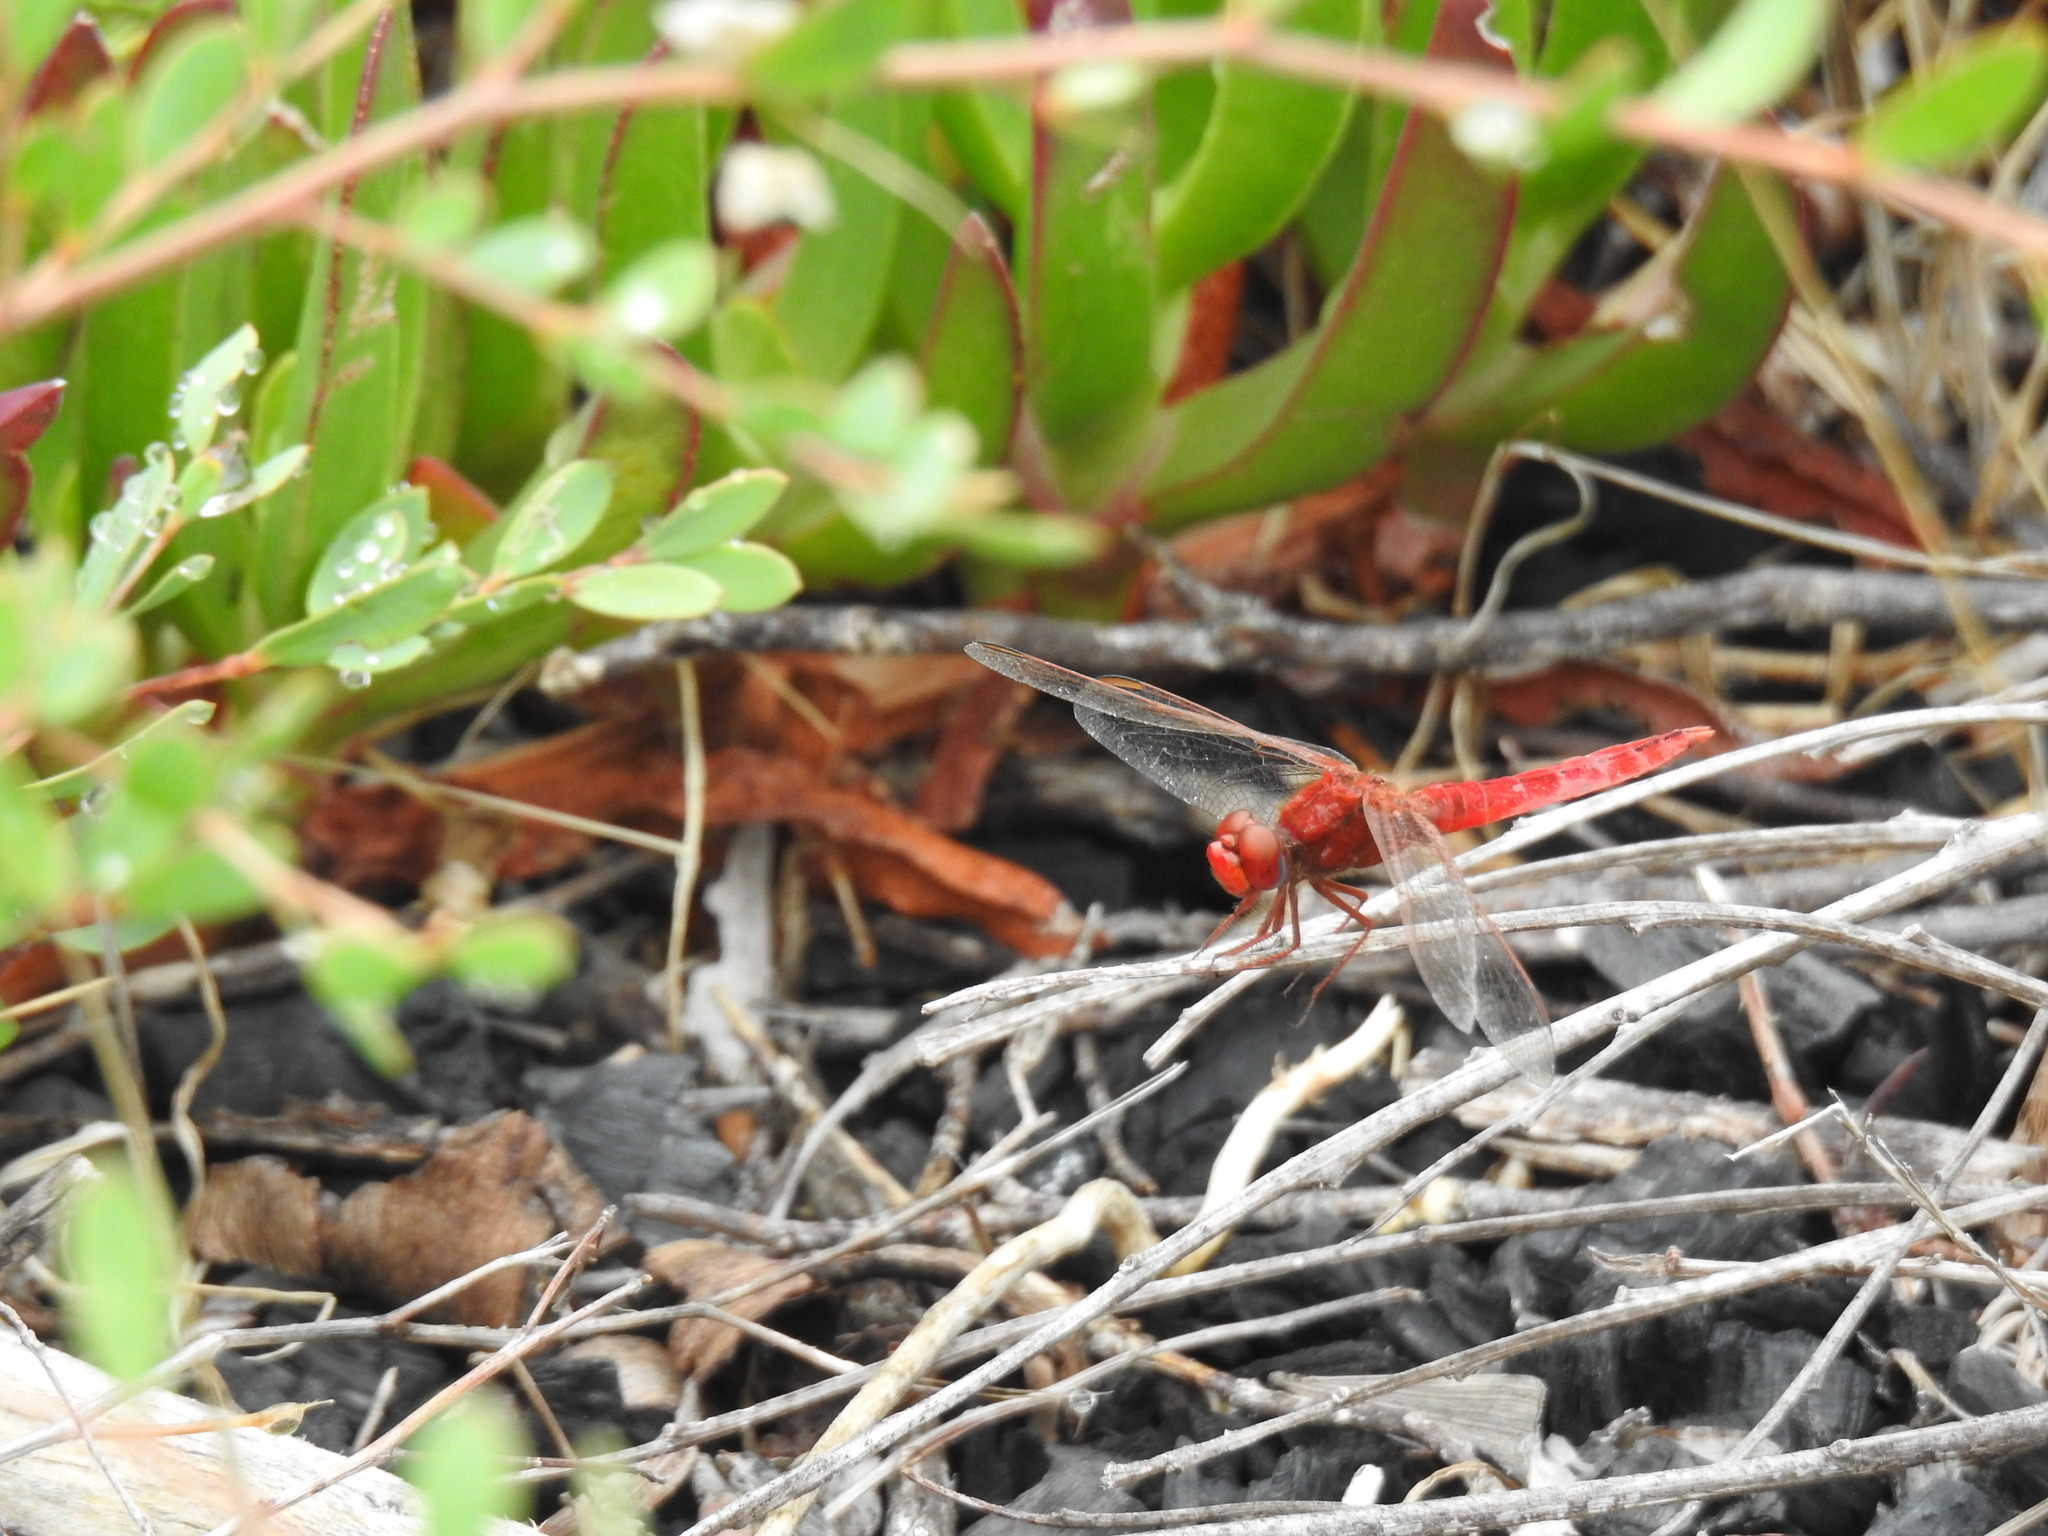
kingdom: Animalia
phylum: Arthropoda
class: Insecta
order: Odonata
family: Libellulidae
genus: Crocothemis
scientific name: Crocothemis erythraea
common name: Scarlet dragonfly
